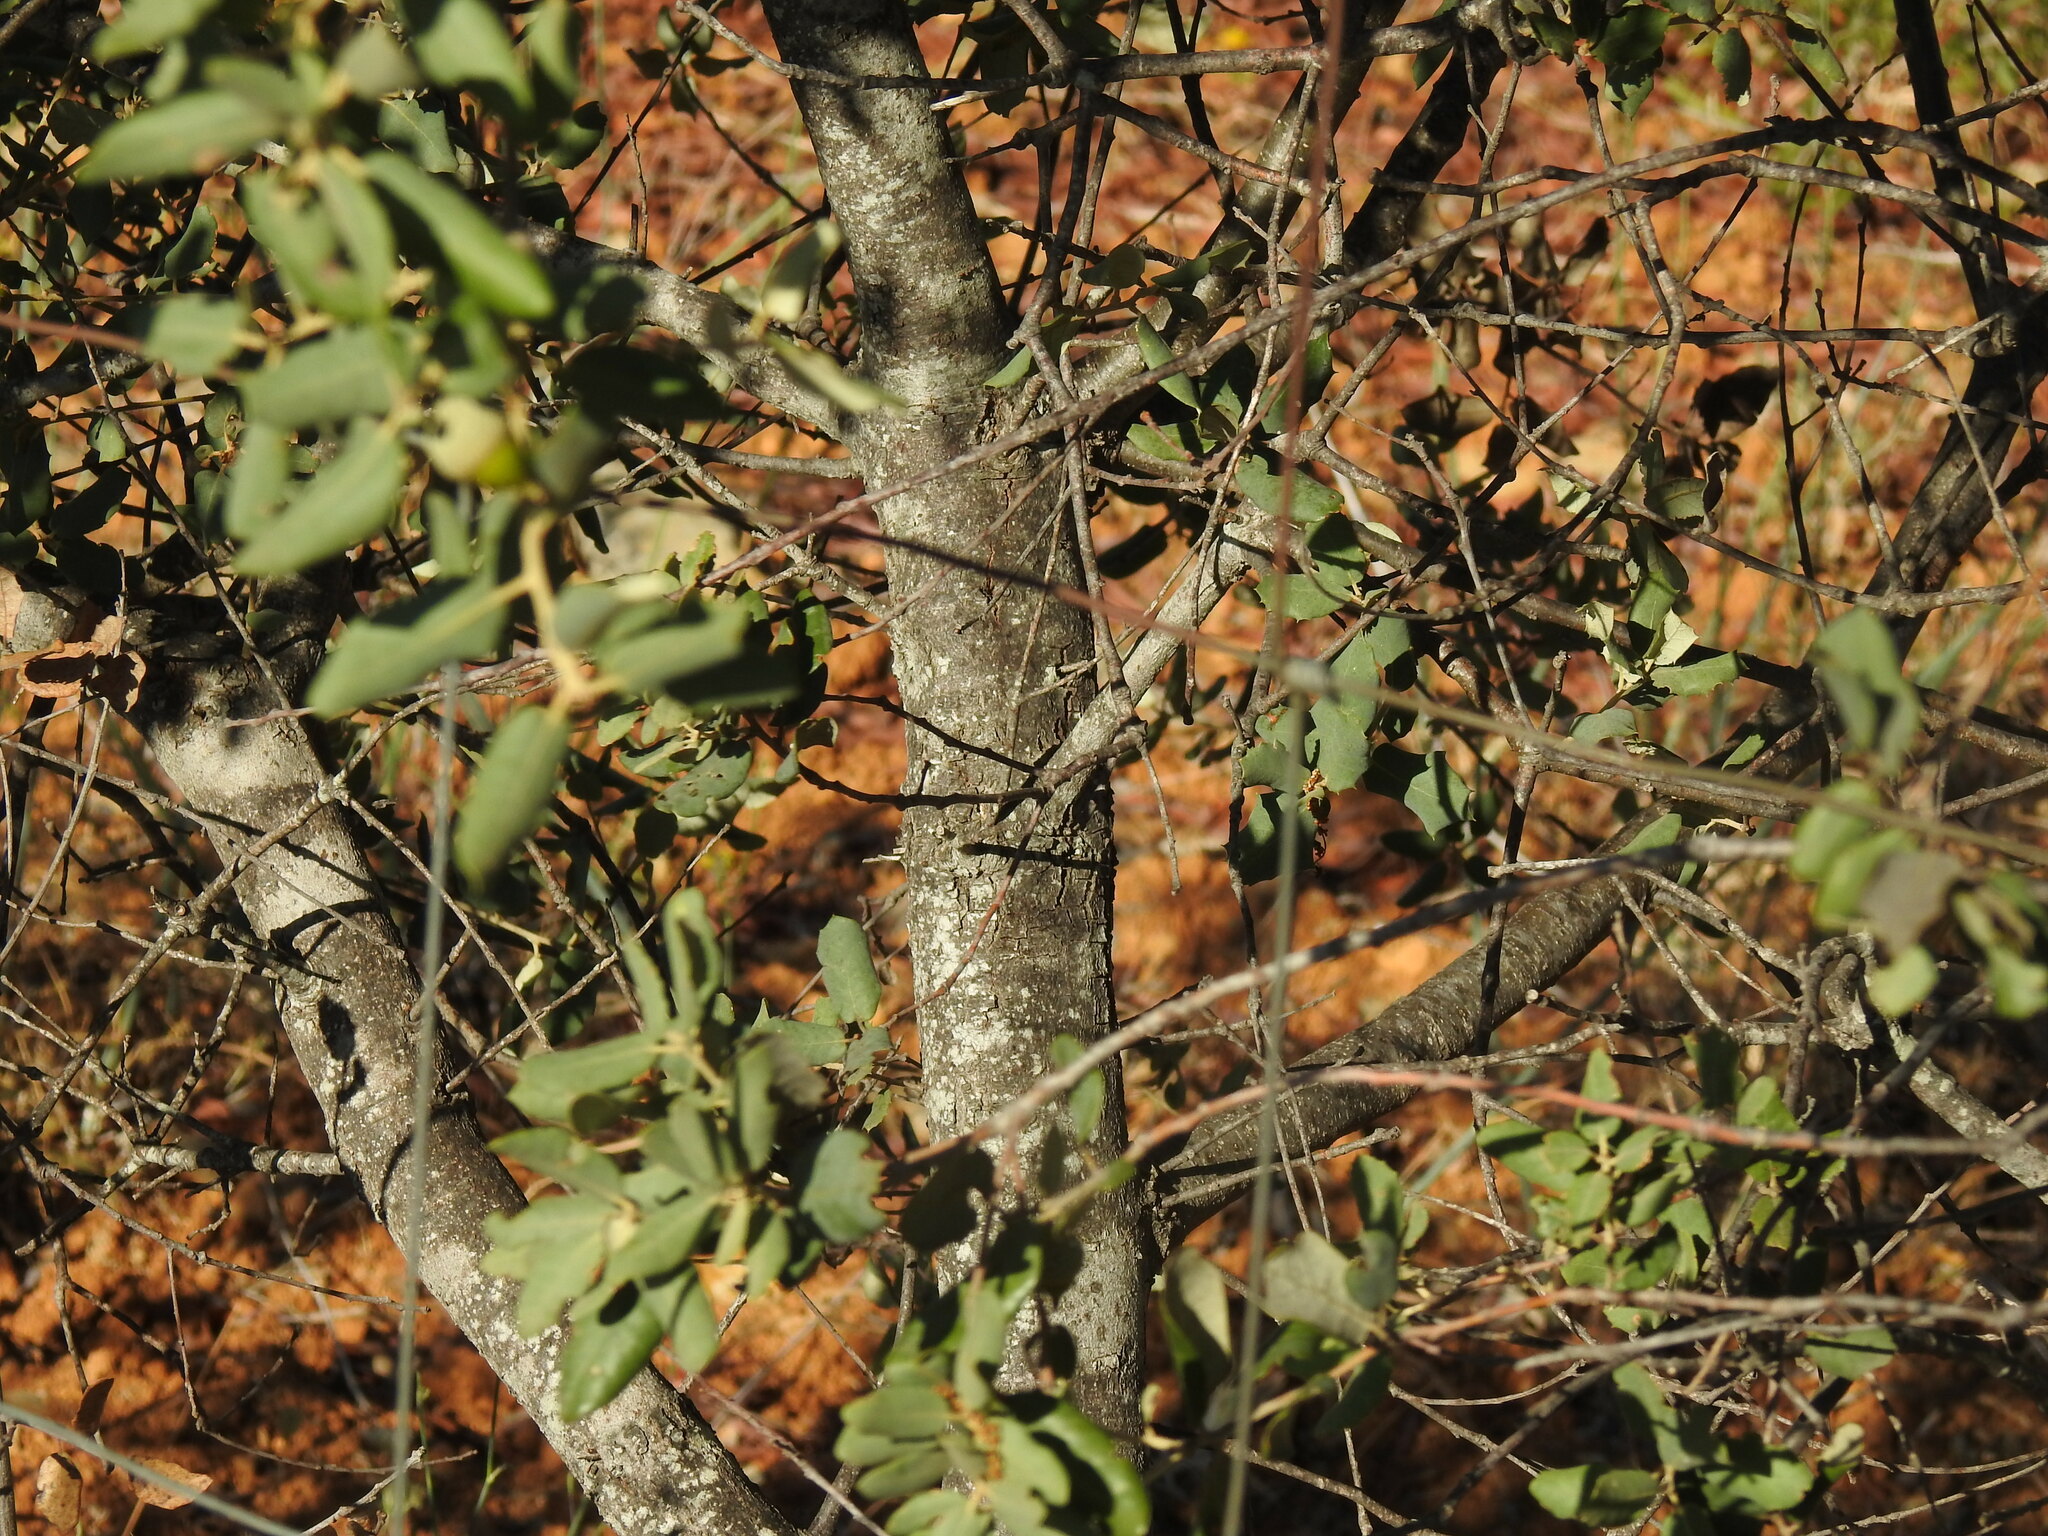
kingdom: Plantae
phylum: Tracheophyta
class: Magnoliopsida
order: Fagales
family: Fagaceae
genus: Quercus
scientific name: Quercus rotundifolia
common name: Holm oak
